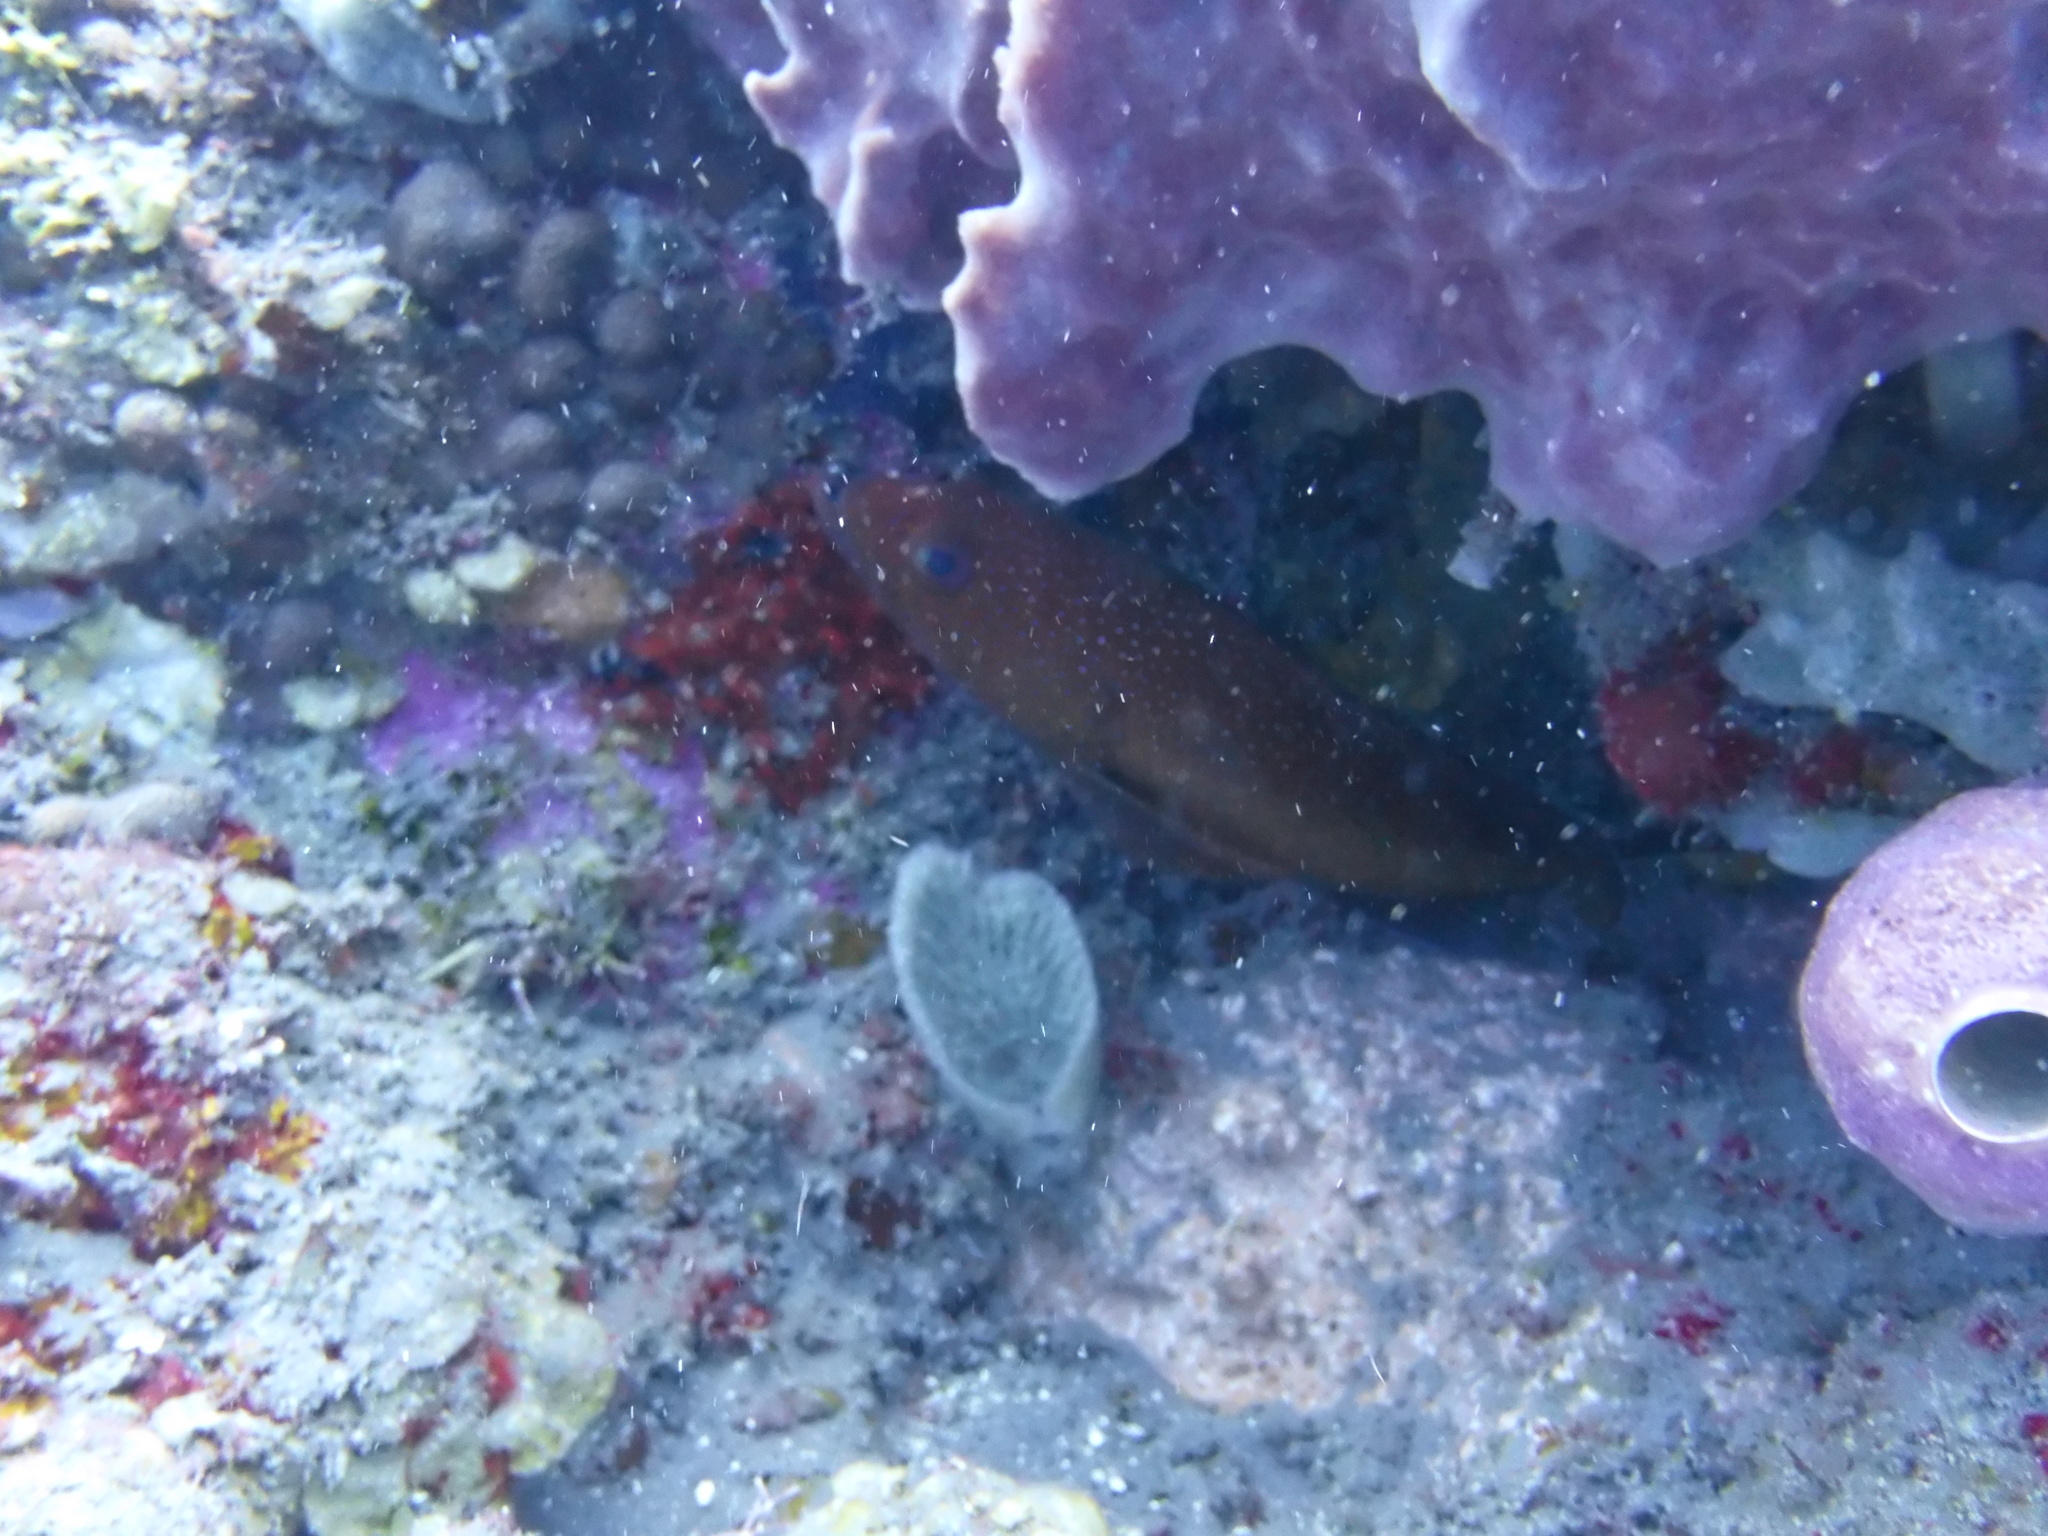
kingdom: Animalia
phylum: Chordata
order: Perciformes
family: Serranidae
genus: Cephalopholis
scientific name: Cephalopholis fulva
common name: Butterfish
